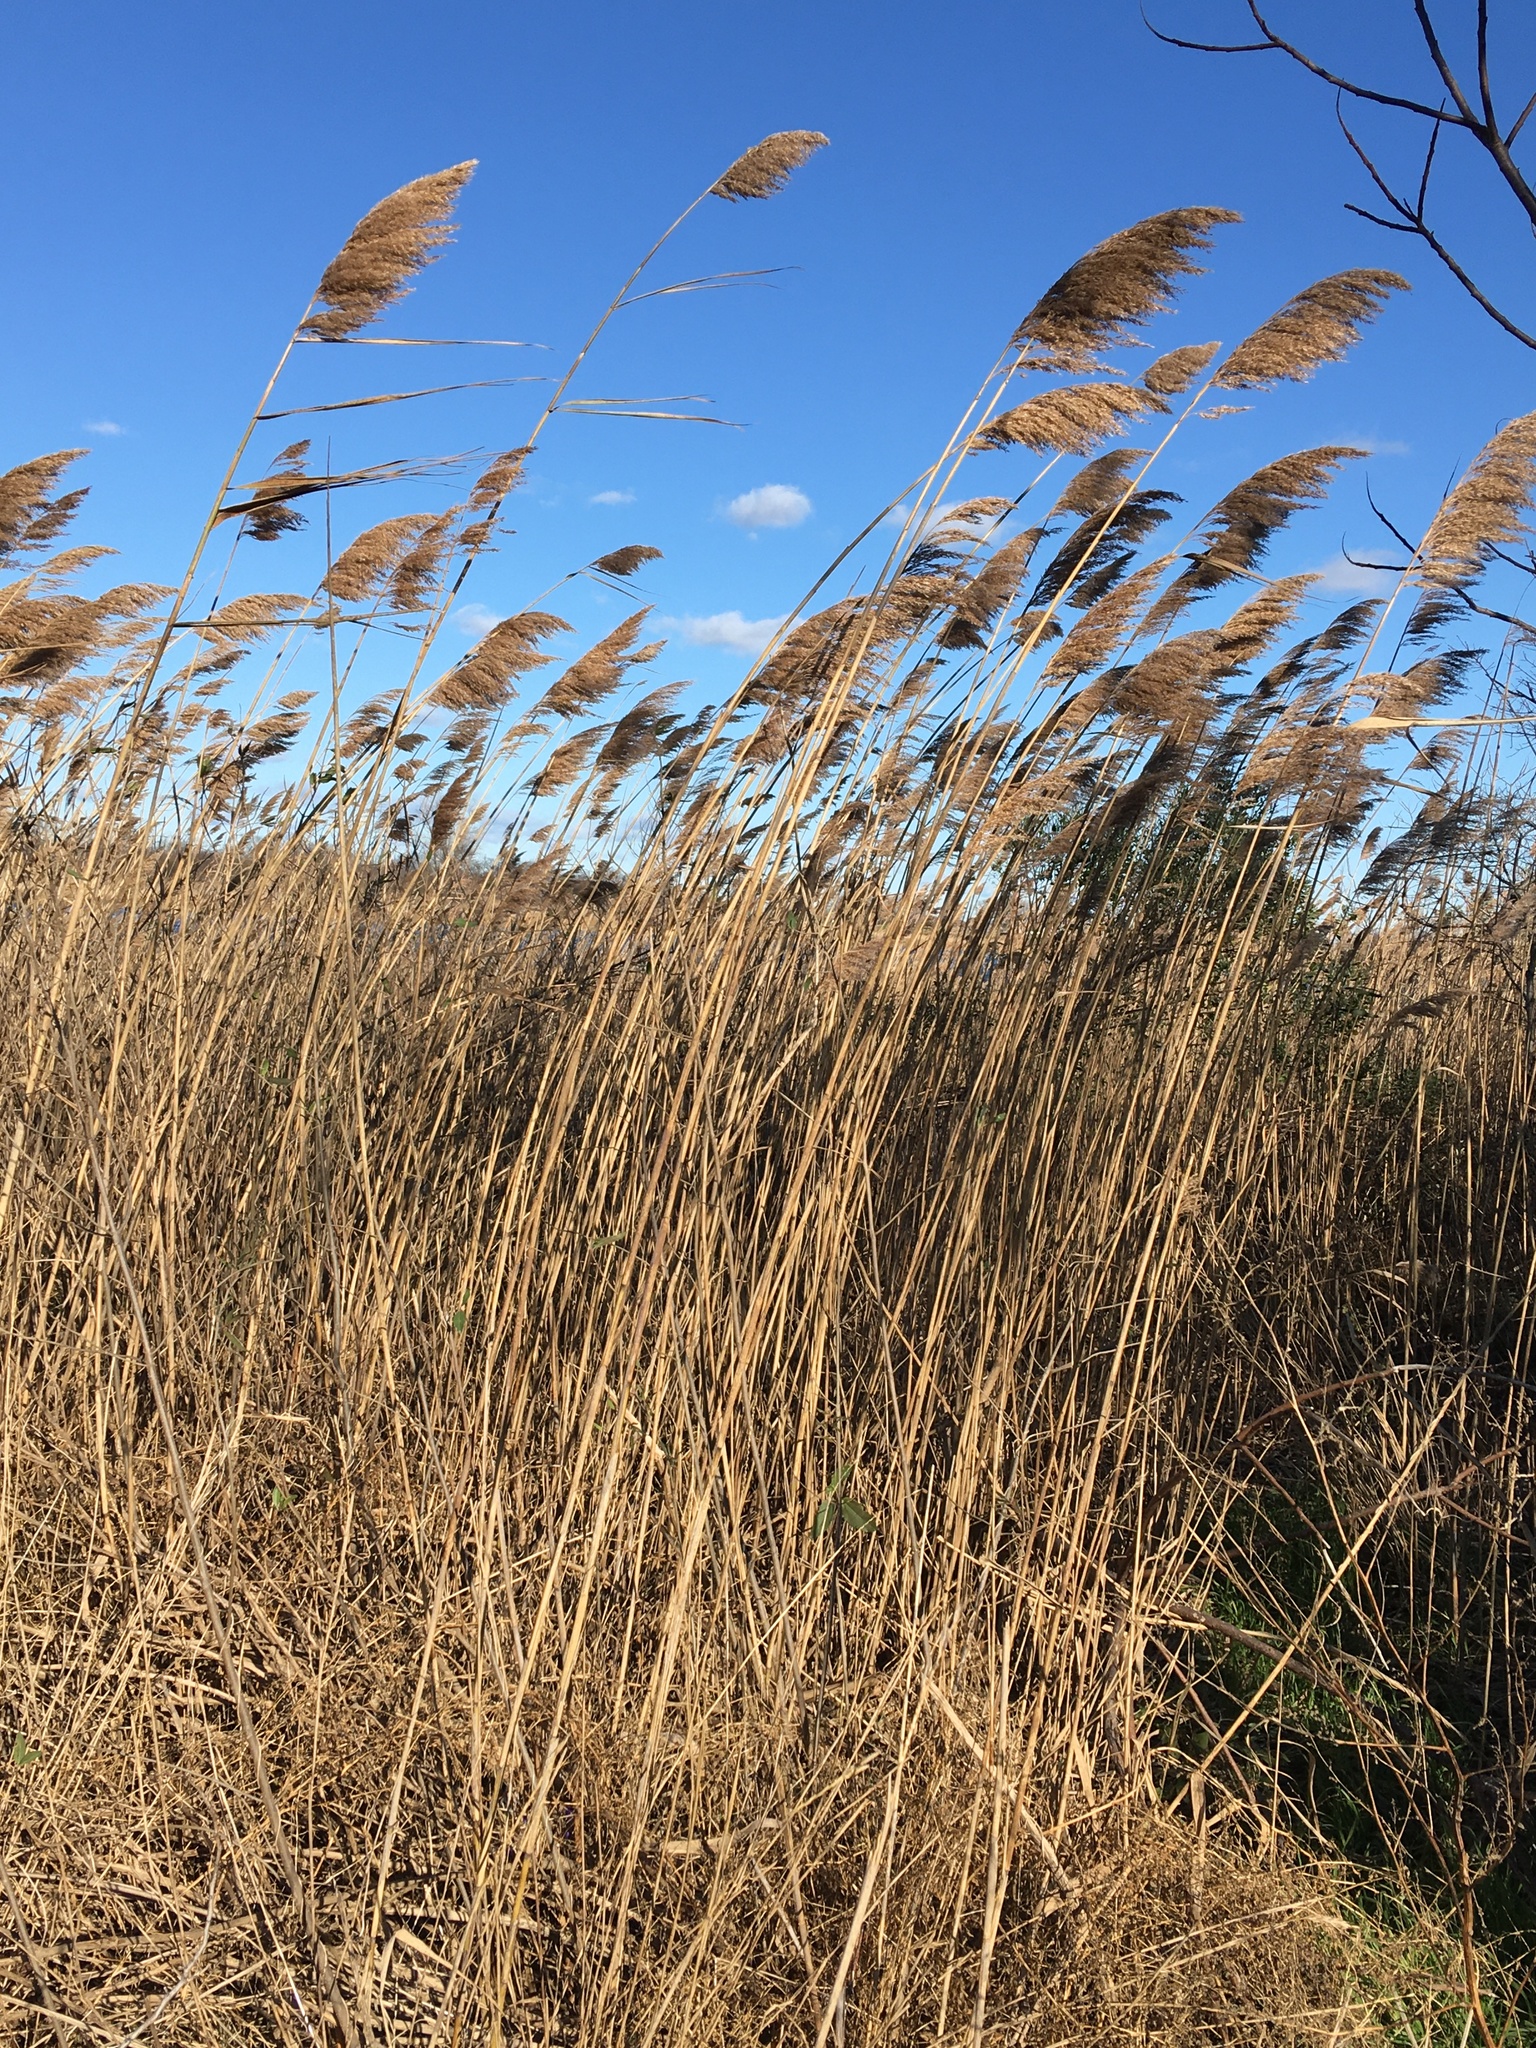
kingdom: Plantae
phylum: Tracheophyta
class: Liliopsida
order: Poales
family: Poaceae
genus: Phragmites
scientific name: Phragmites australis
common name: Common reed
